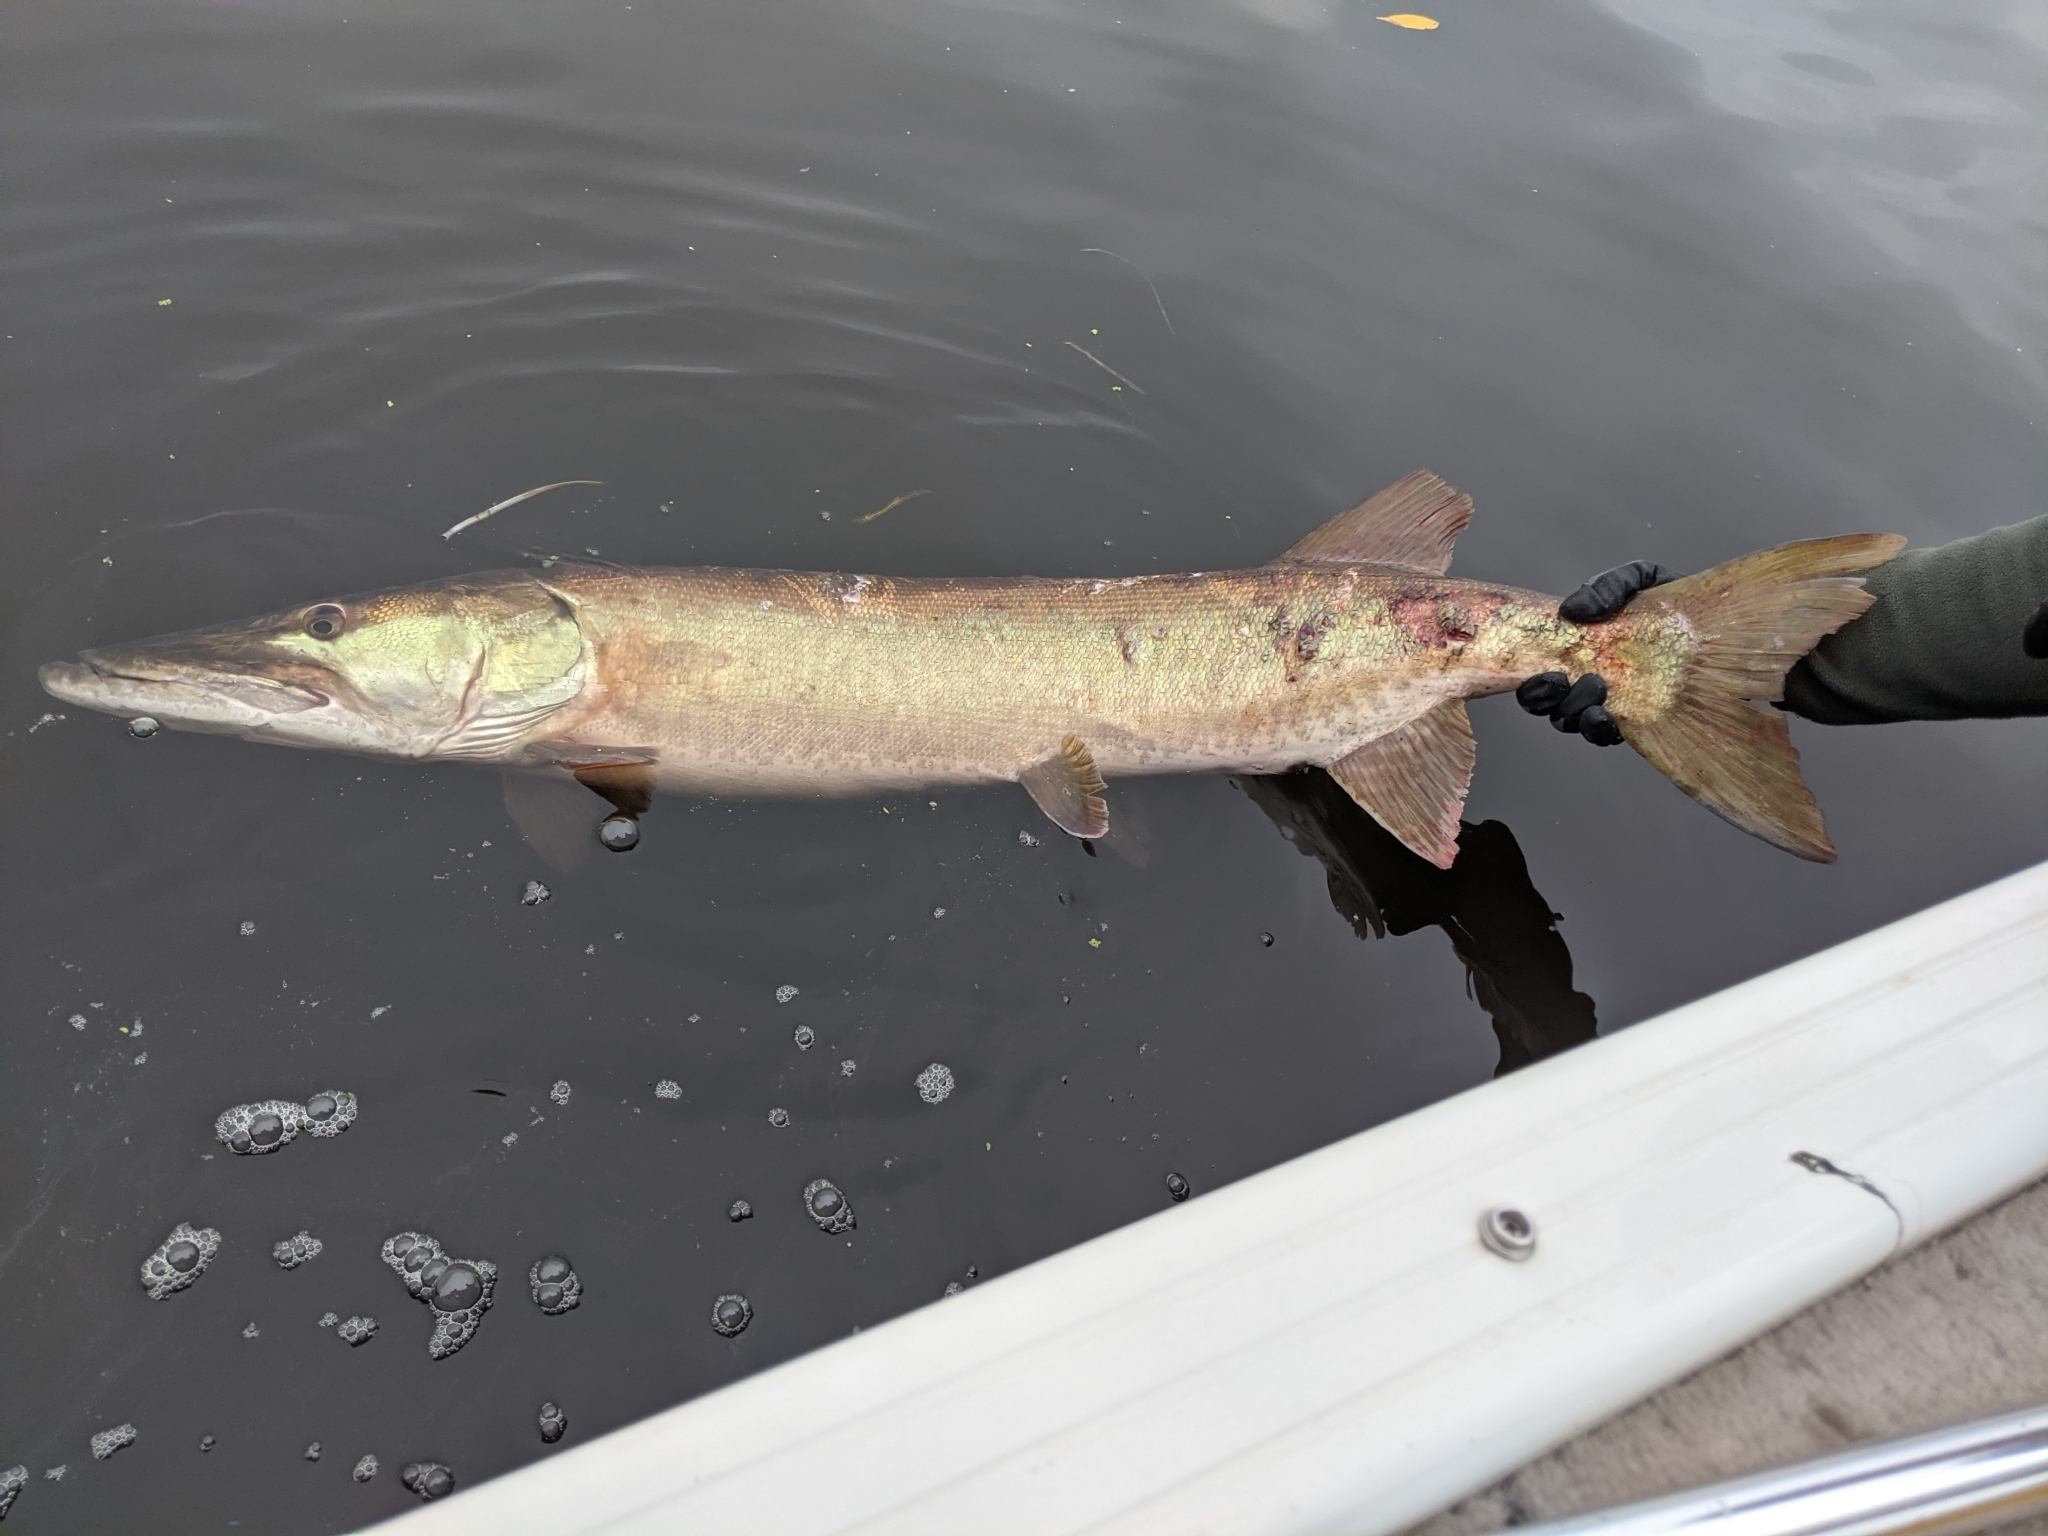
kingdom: Animalia
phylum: Chordata
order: Esociformes
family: Esocidae
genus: Esox
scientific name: Esox masquinongy
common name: Muskellunge
